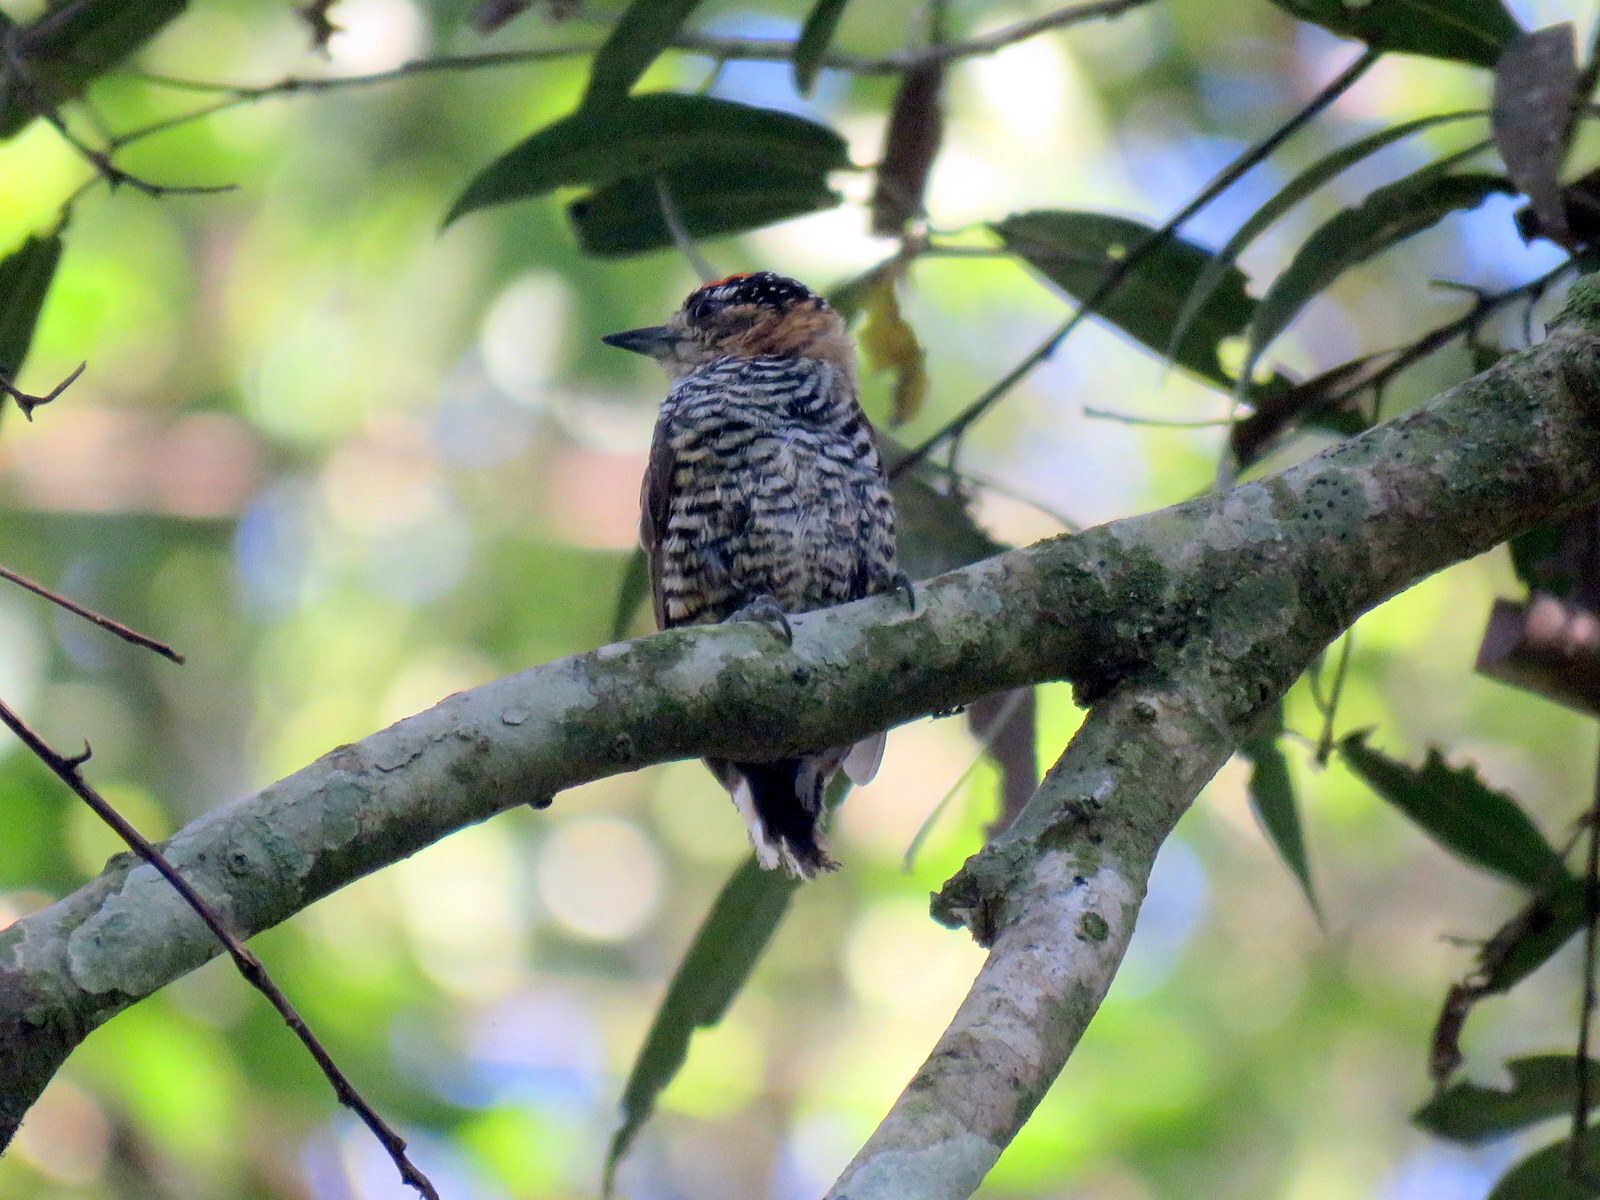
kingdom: Animalia
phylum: Chordata
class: Aves
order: Piciformes
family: Picidae
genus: Picumnus
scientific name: Picumnus temminckii
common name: Ochre-collared piculet
